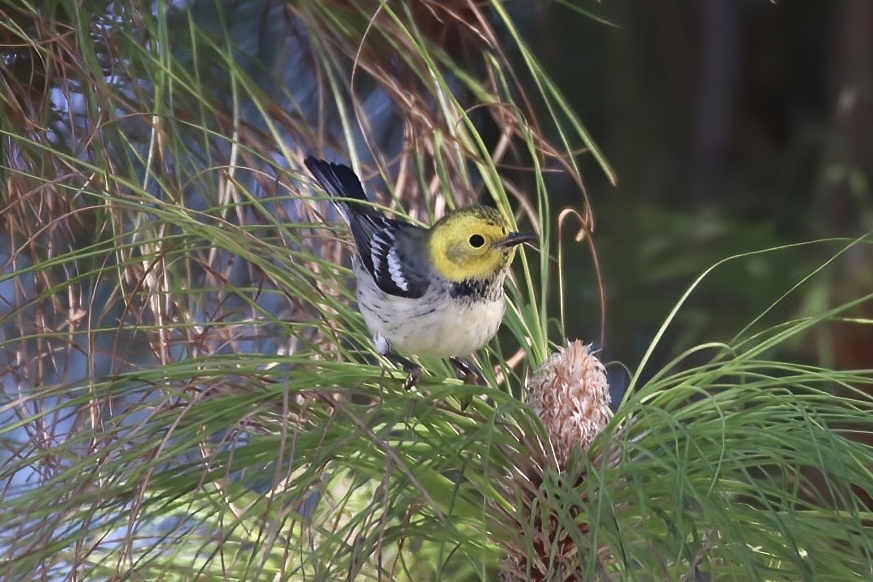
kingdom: Animalia
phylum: Chordata
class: Aves
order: Passeriformes
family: Parulidae
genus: Setophaga
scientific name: Setophaga occidentalis
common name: Hermit warbler
